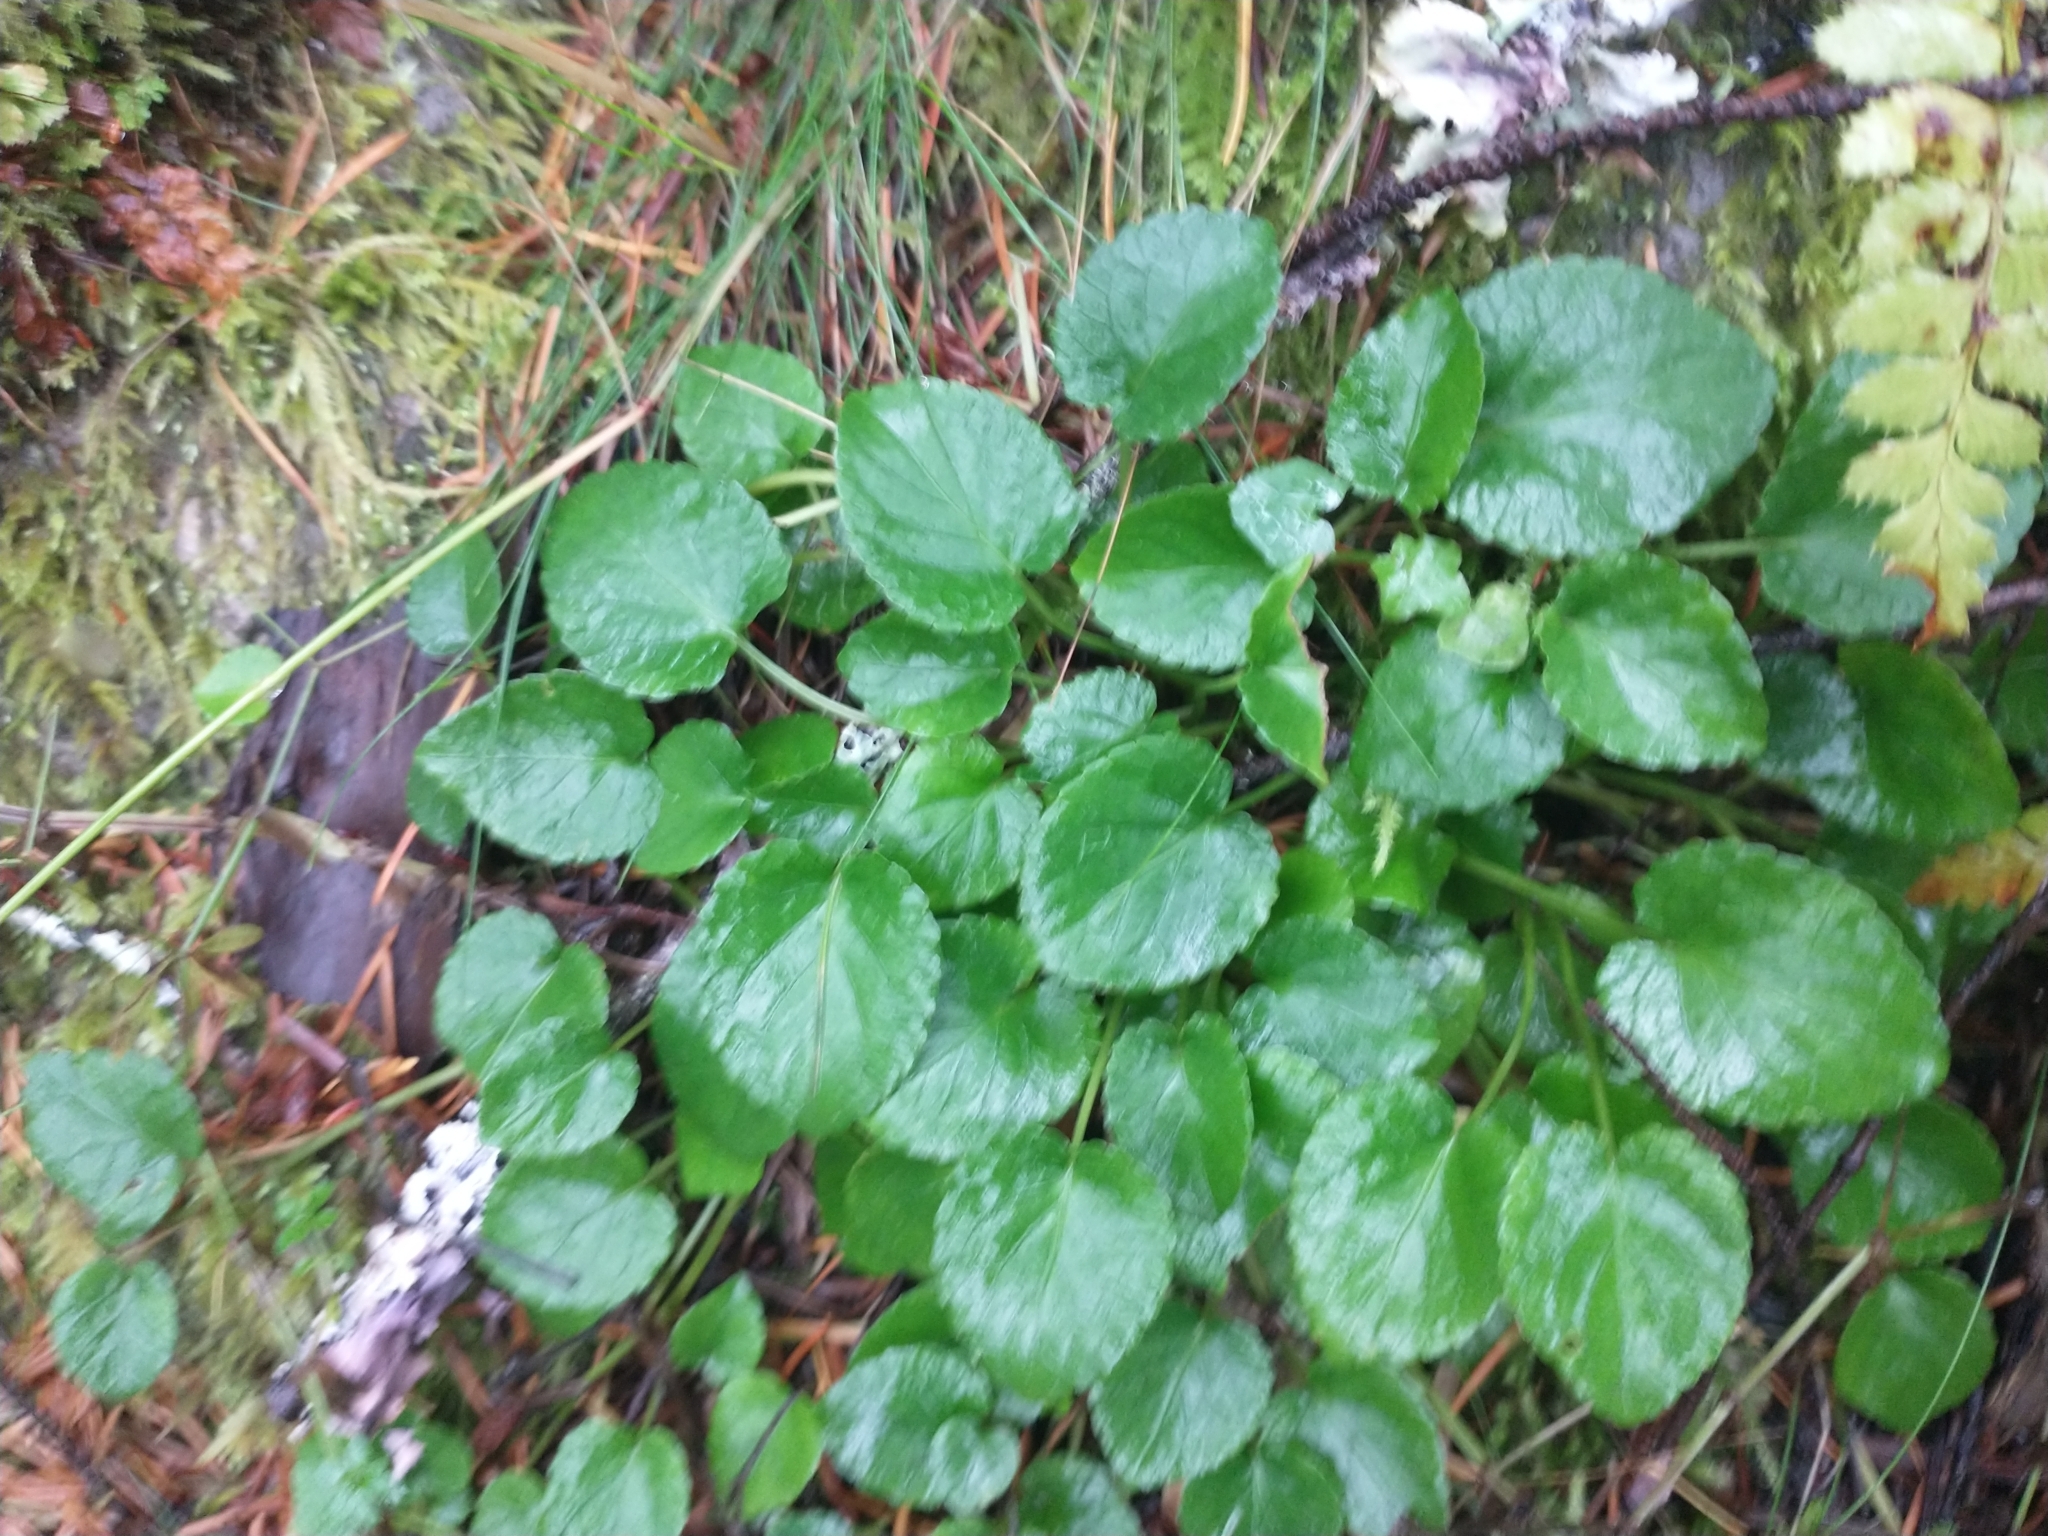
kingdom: Plantae
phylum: Tracheophyta
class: Magnoliopsida
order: Malpighiales
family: Violaceae
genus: Viola
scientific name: Viola sempervirens
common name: Evergreen violet
